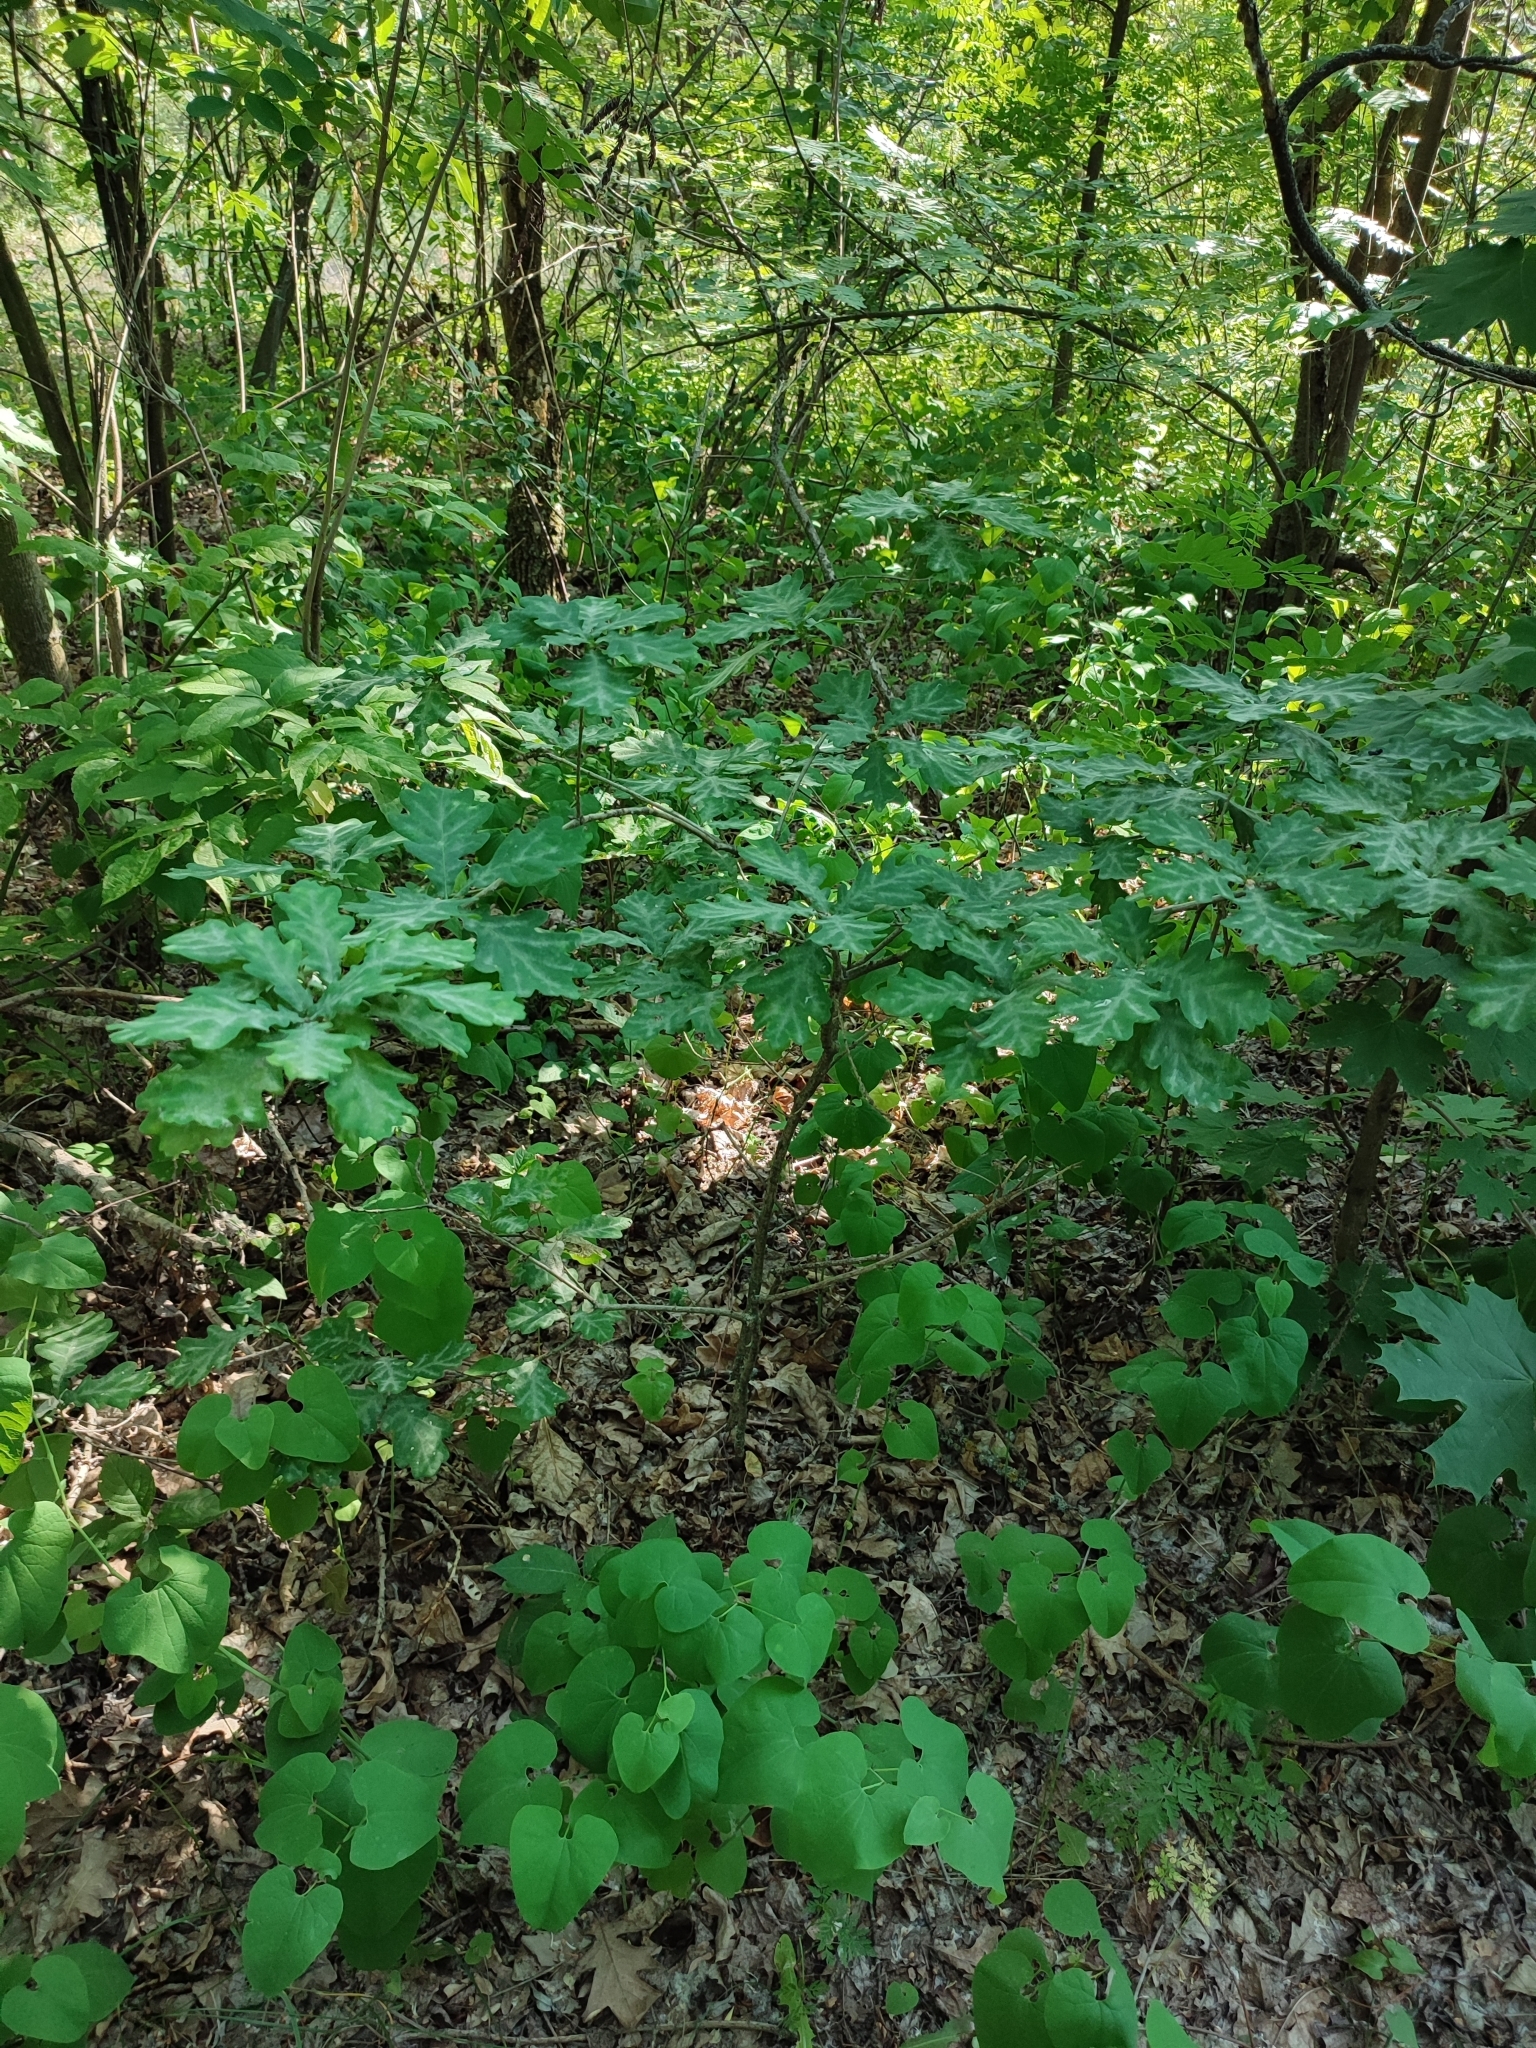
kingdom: Plantae
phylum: Tracheophyta
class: Magnoliopsida
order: Fagales
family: Fagaceae
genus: Quercus
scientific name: Quercus robur
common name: Pedunculate oak
